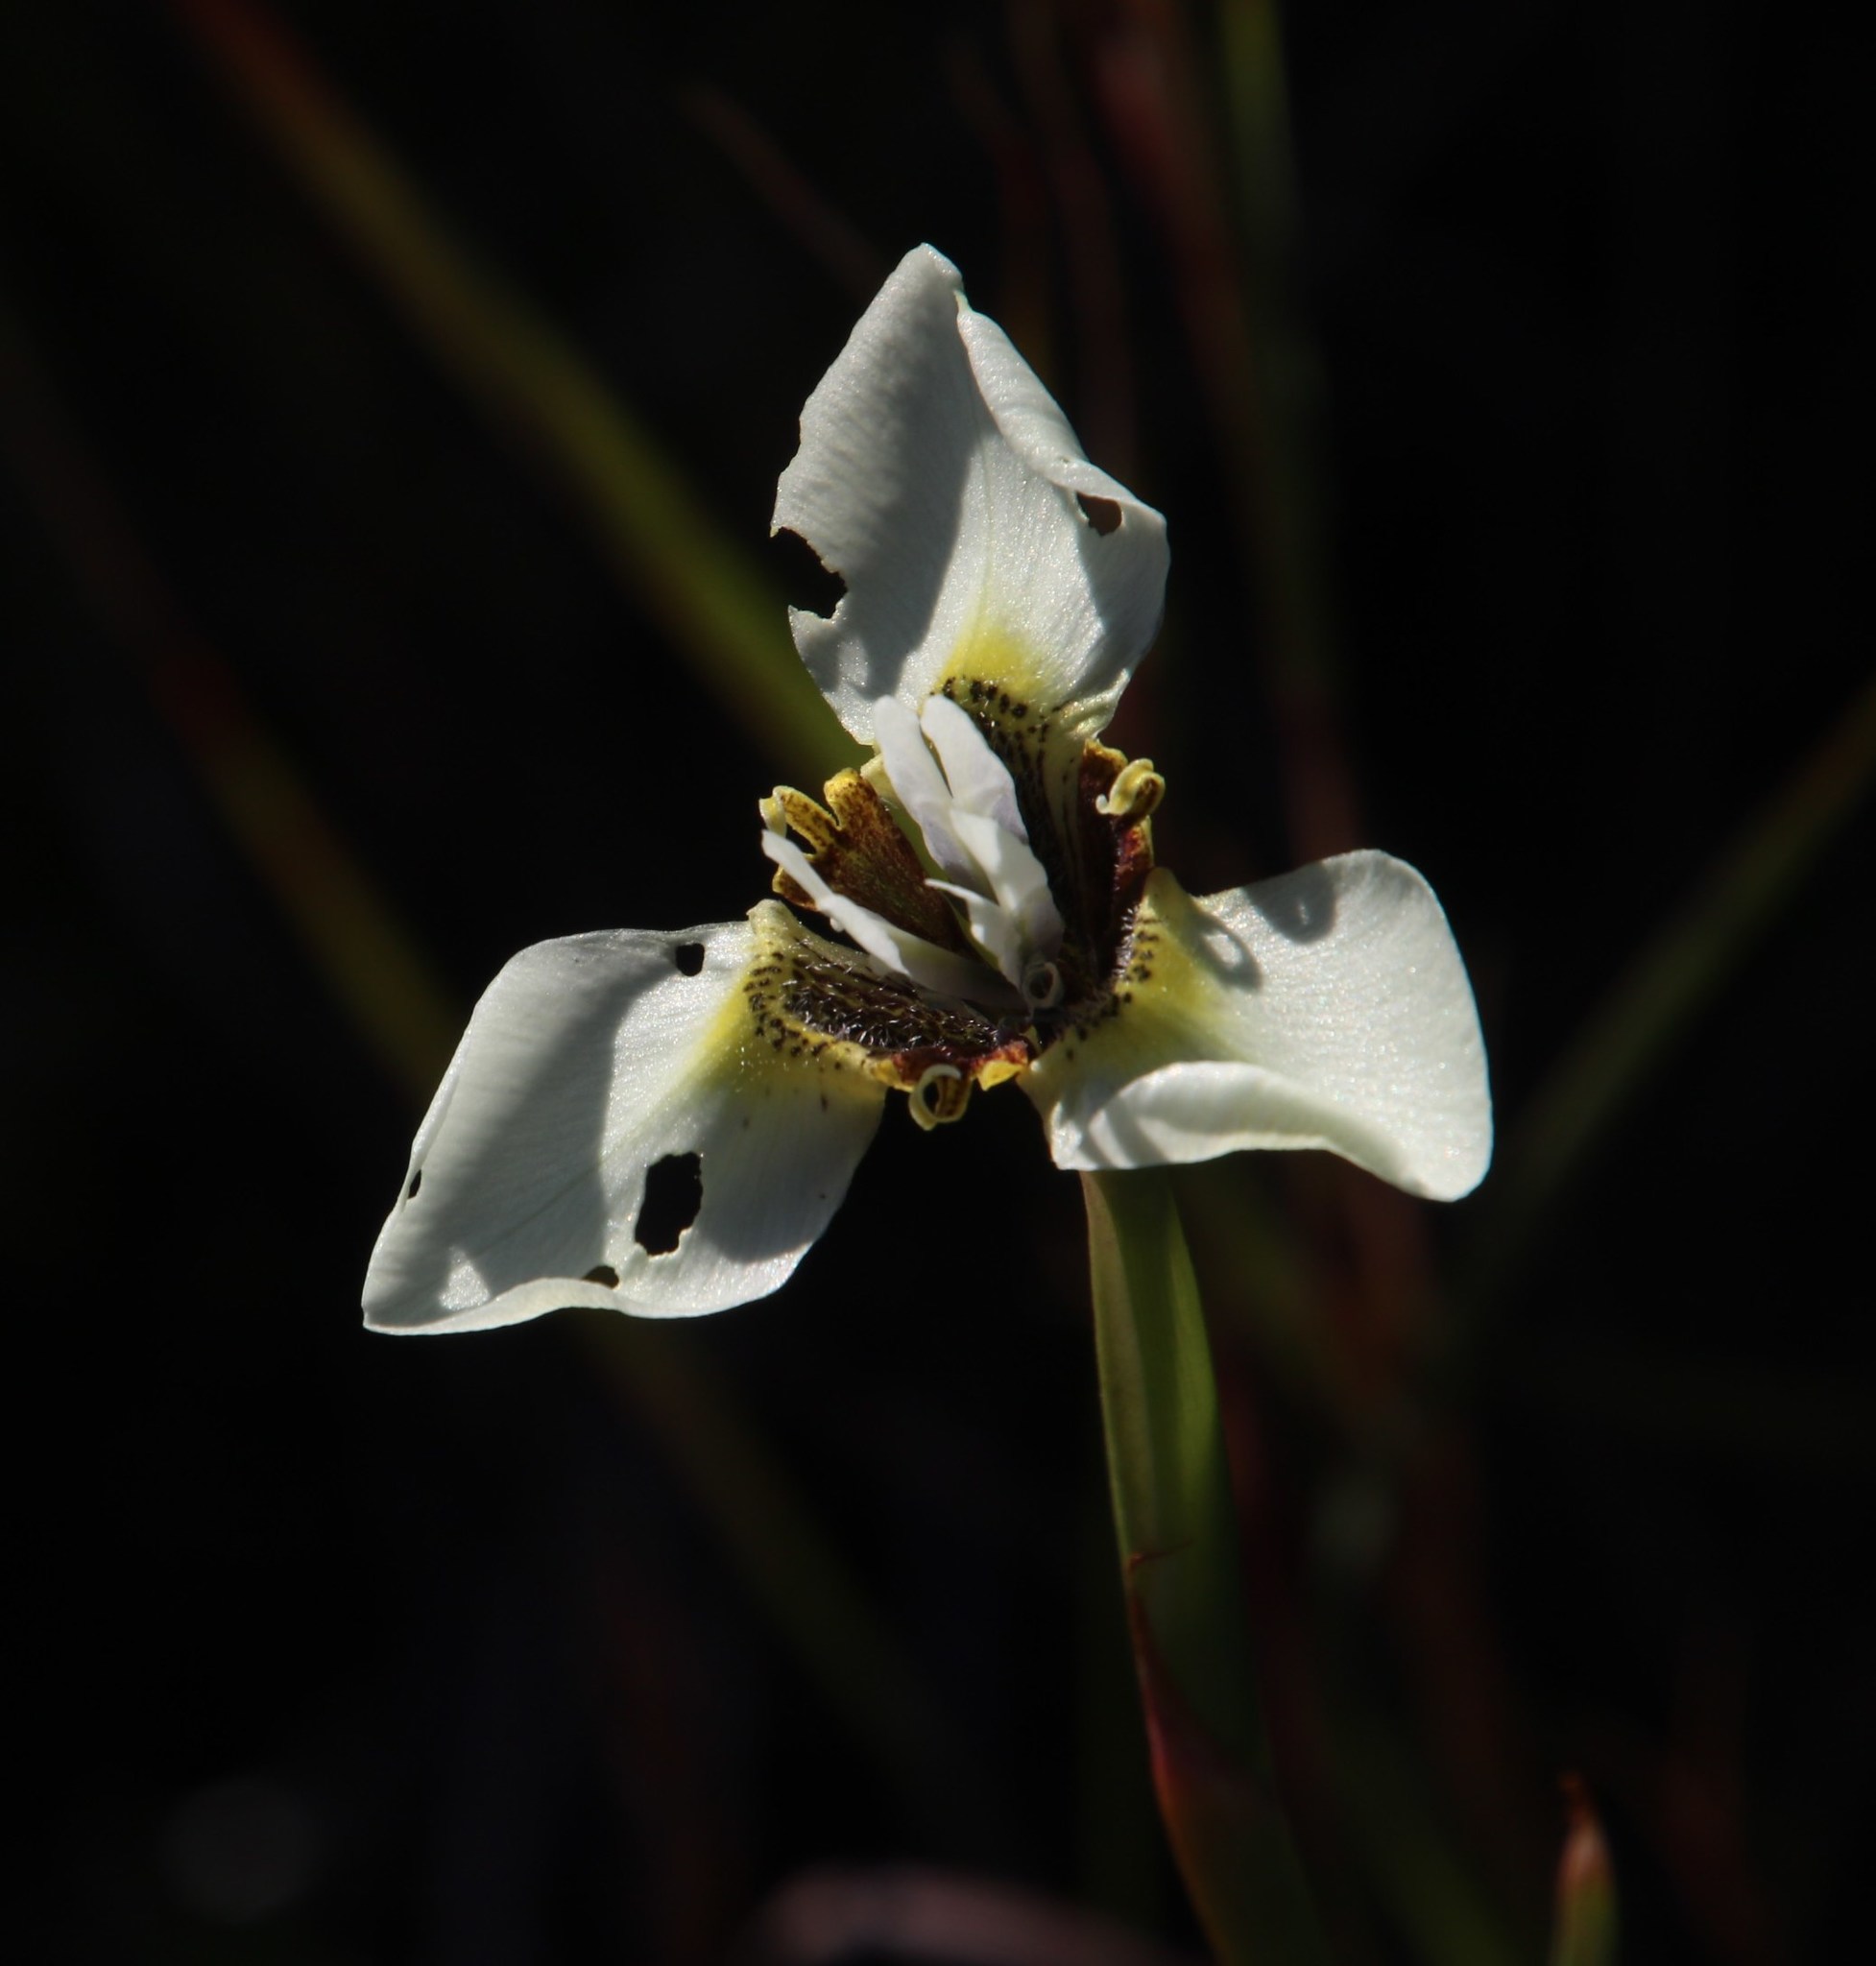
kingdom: Plantae
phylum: Tracheophyta
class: Liliopsida
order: Asparagales
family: Iridaceae
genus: Moraea
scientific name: Moraea tricuspidata
